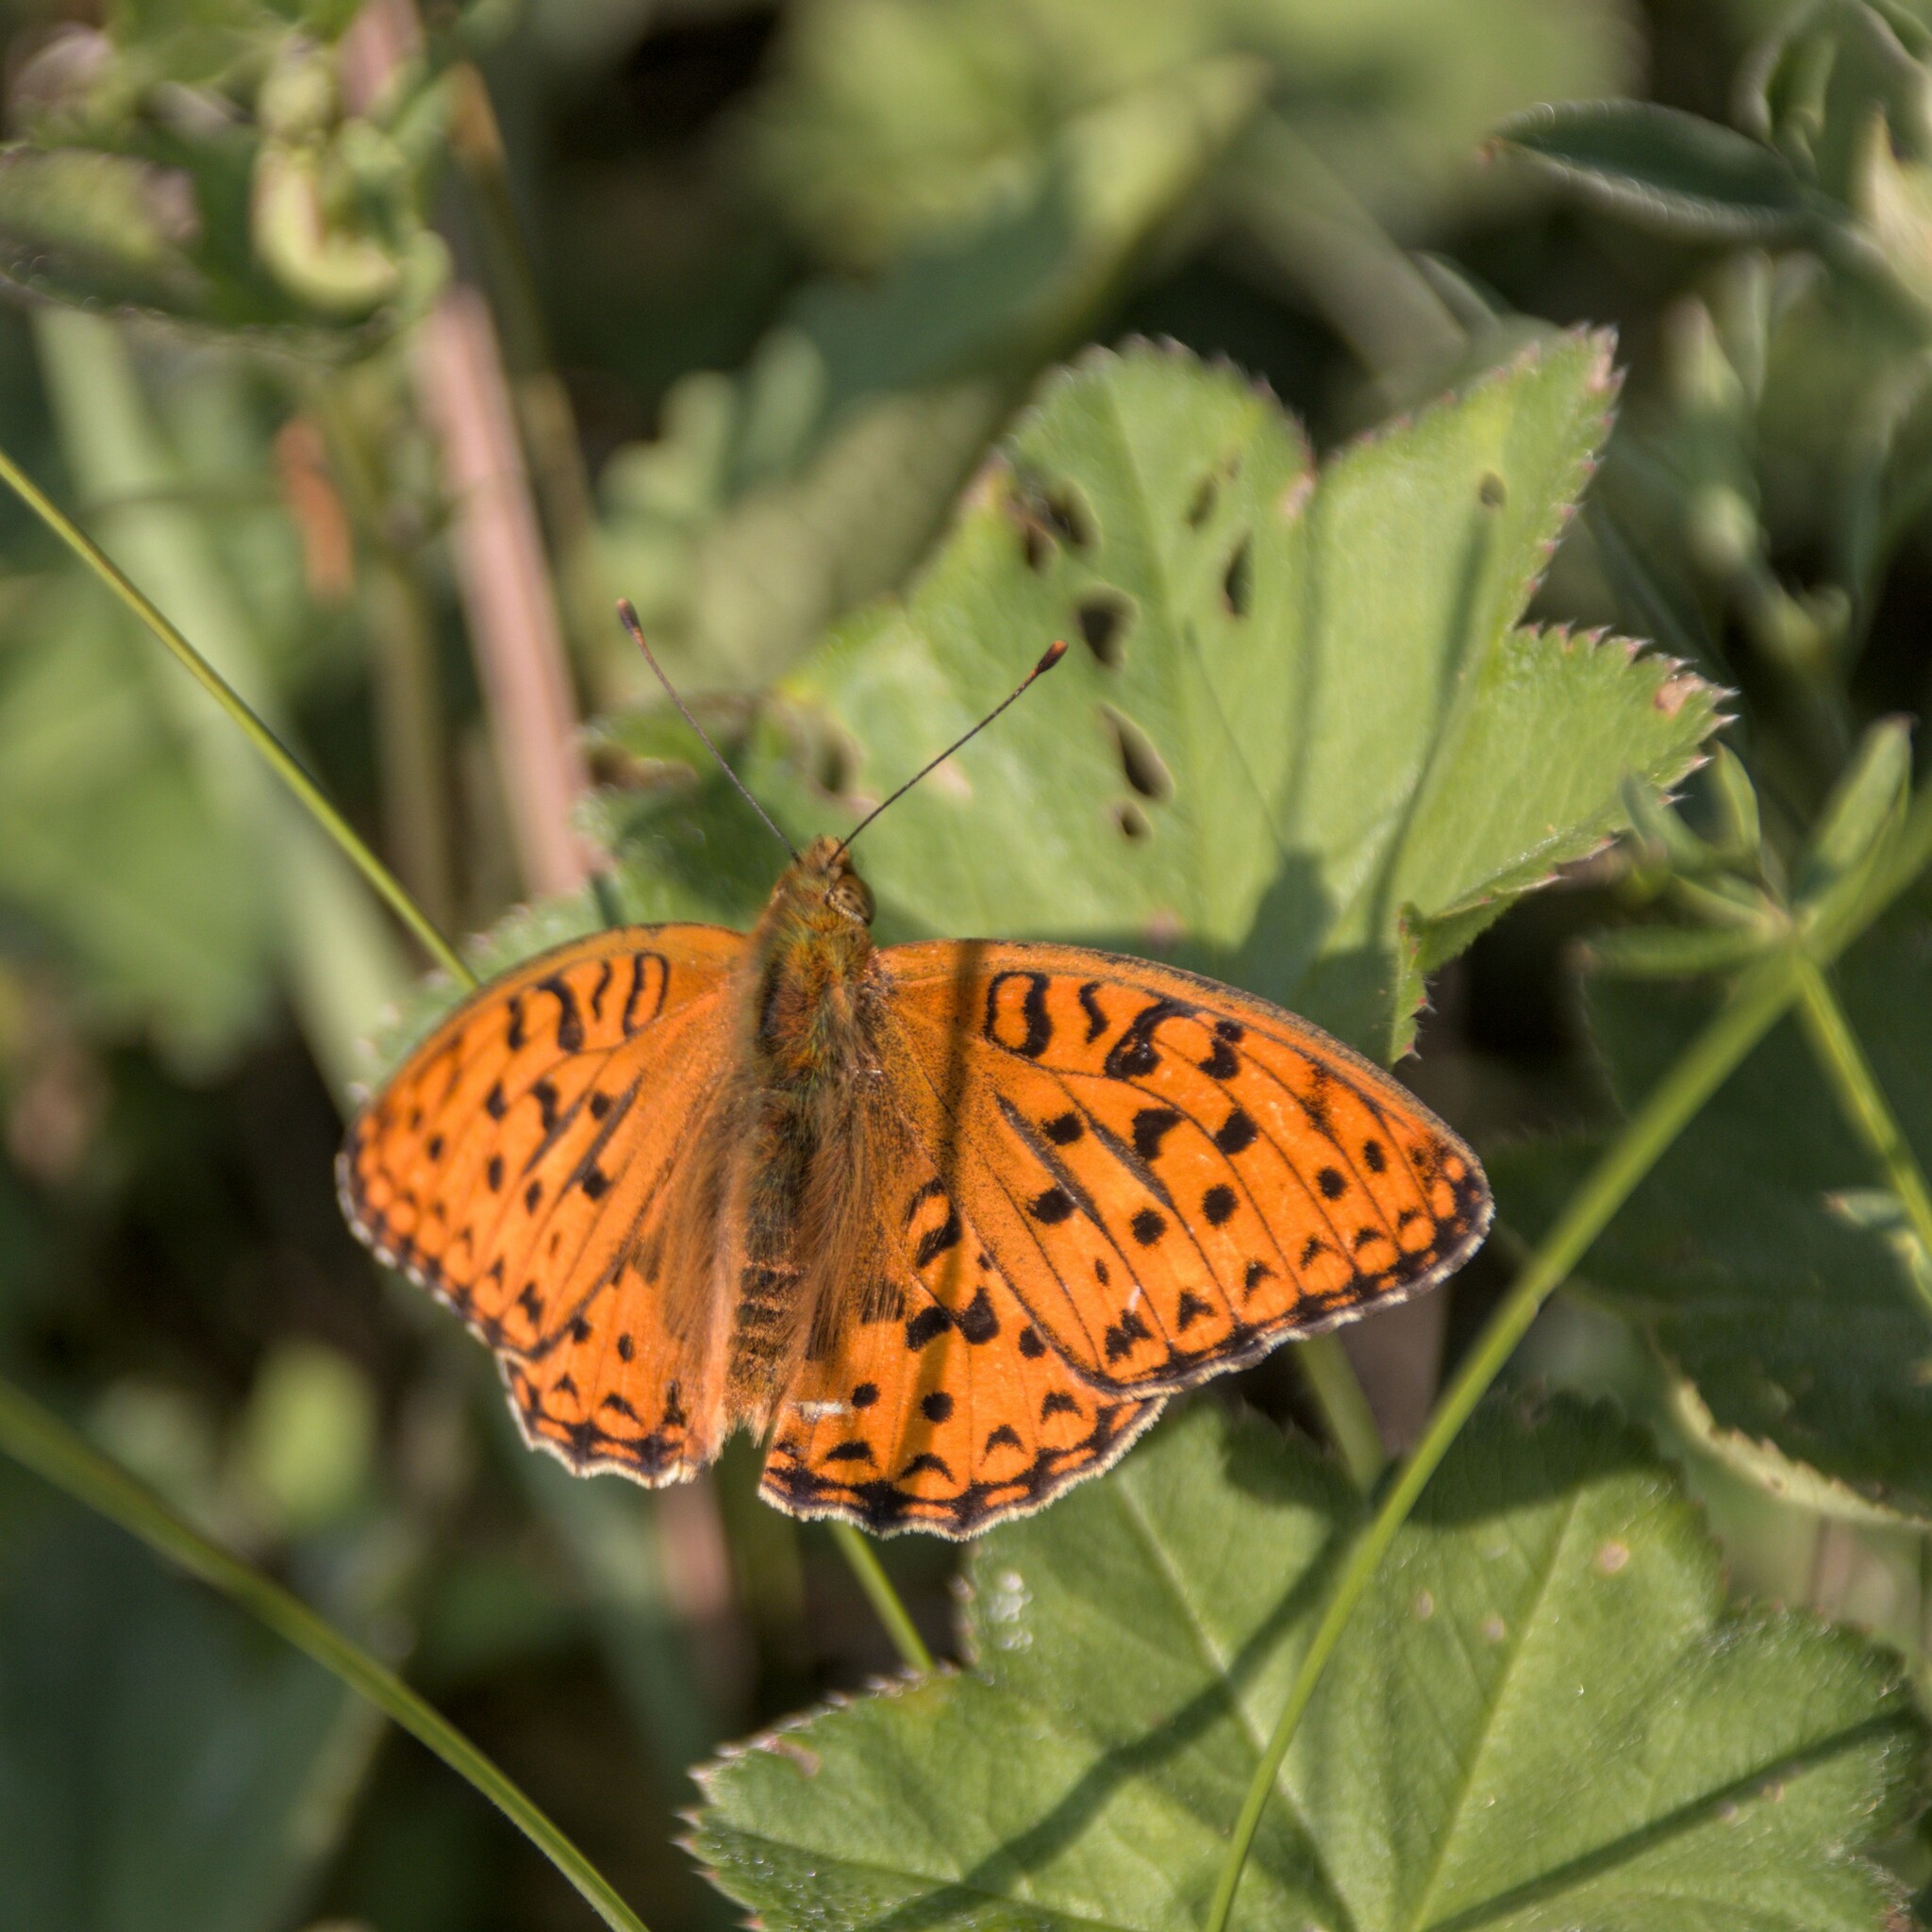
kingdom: Animalia
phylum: Arthropoda
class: Insecta
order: Lepidoptera
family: Nymphalidae
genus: Fabriciana
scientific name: Fabriciana adippe
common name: High brown fritillary
